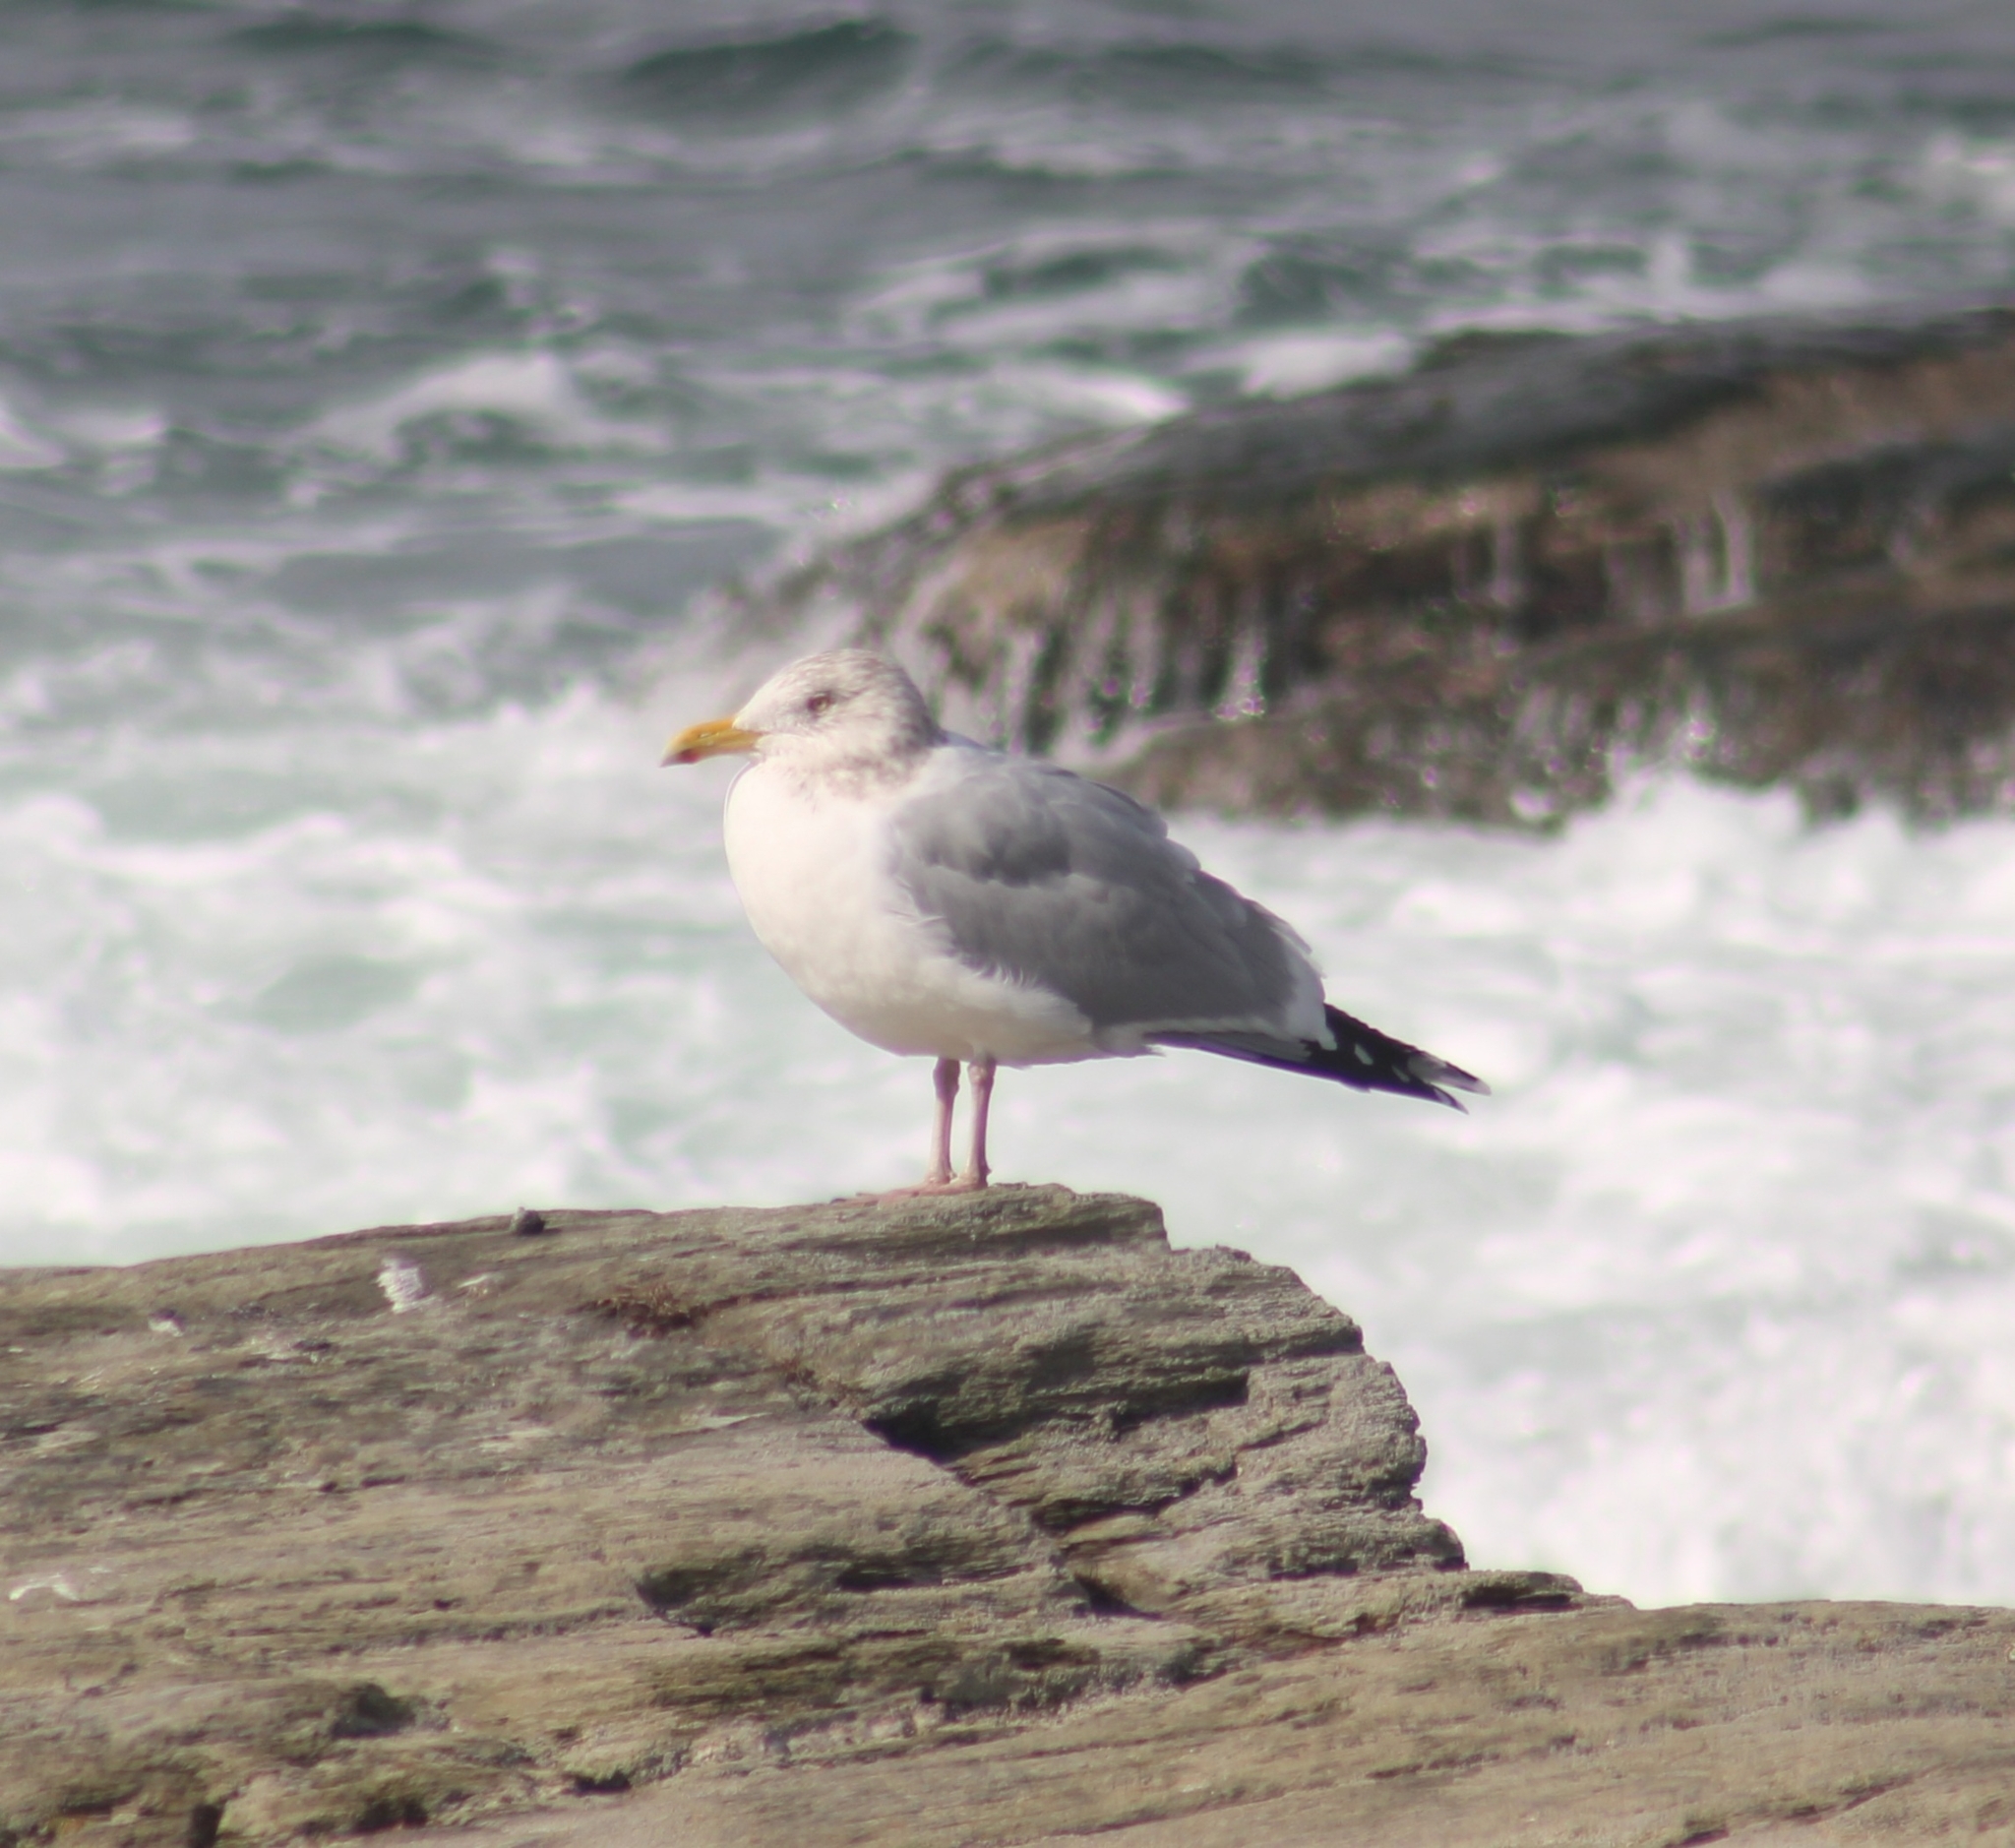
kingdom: Animalia
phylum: Chordata
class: Aves
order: Charadriiformes
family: Laridae
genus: Larus
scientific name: Larus argentatus
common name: Herring gull
